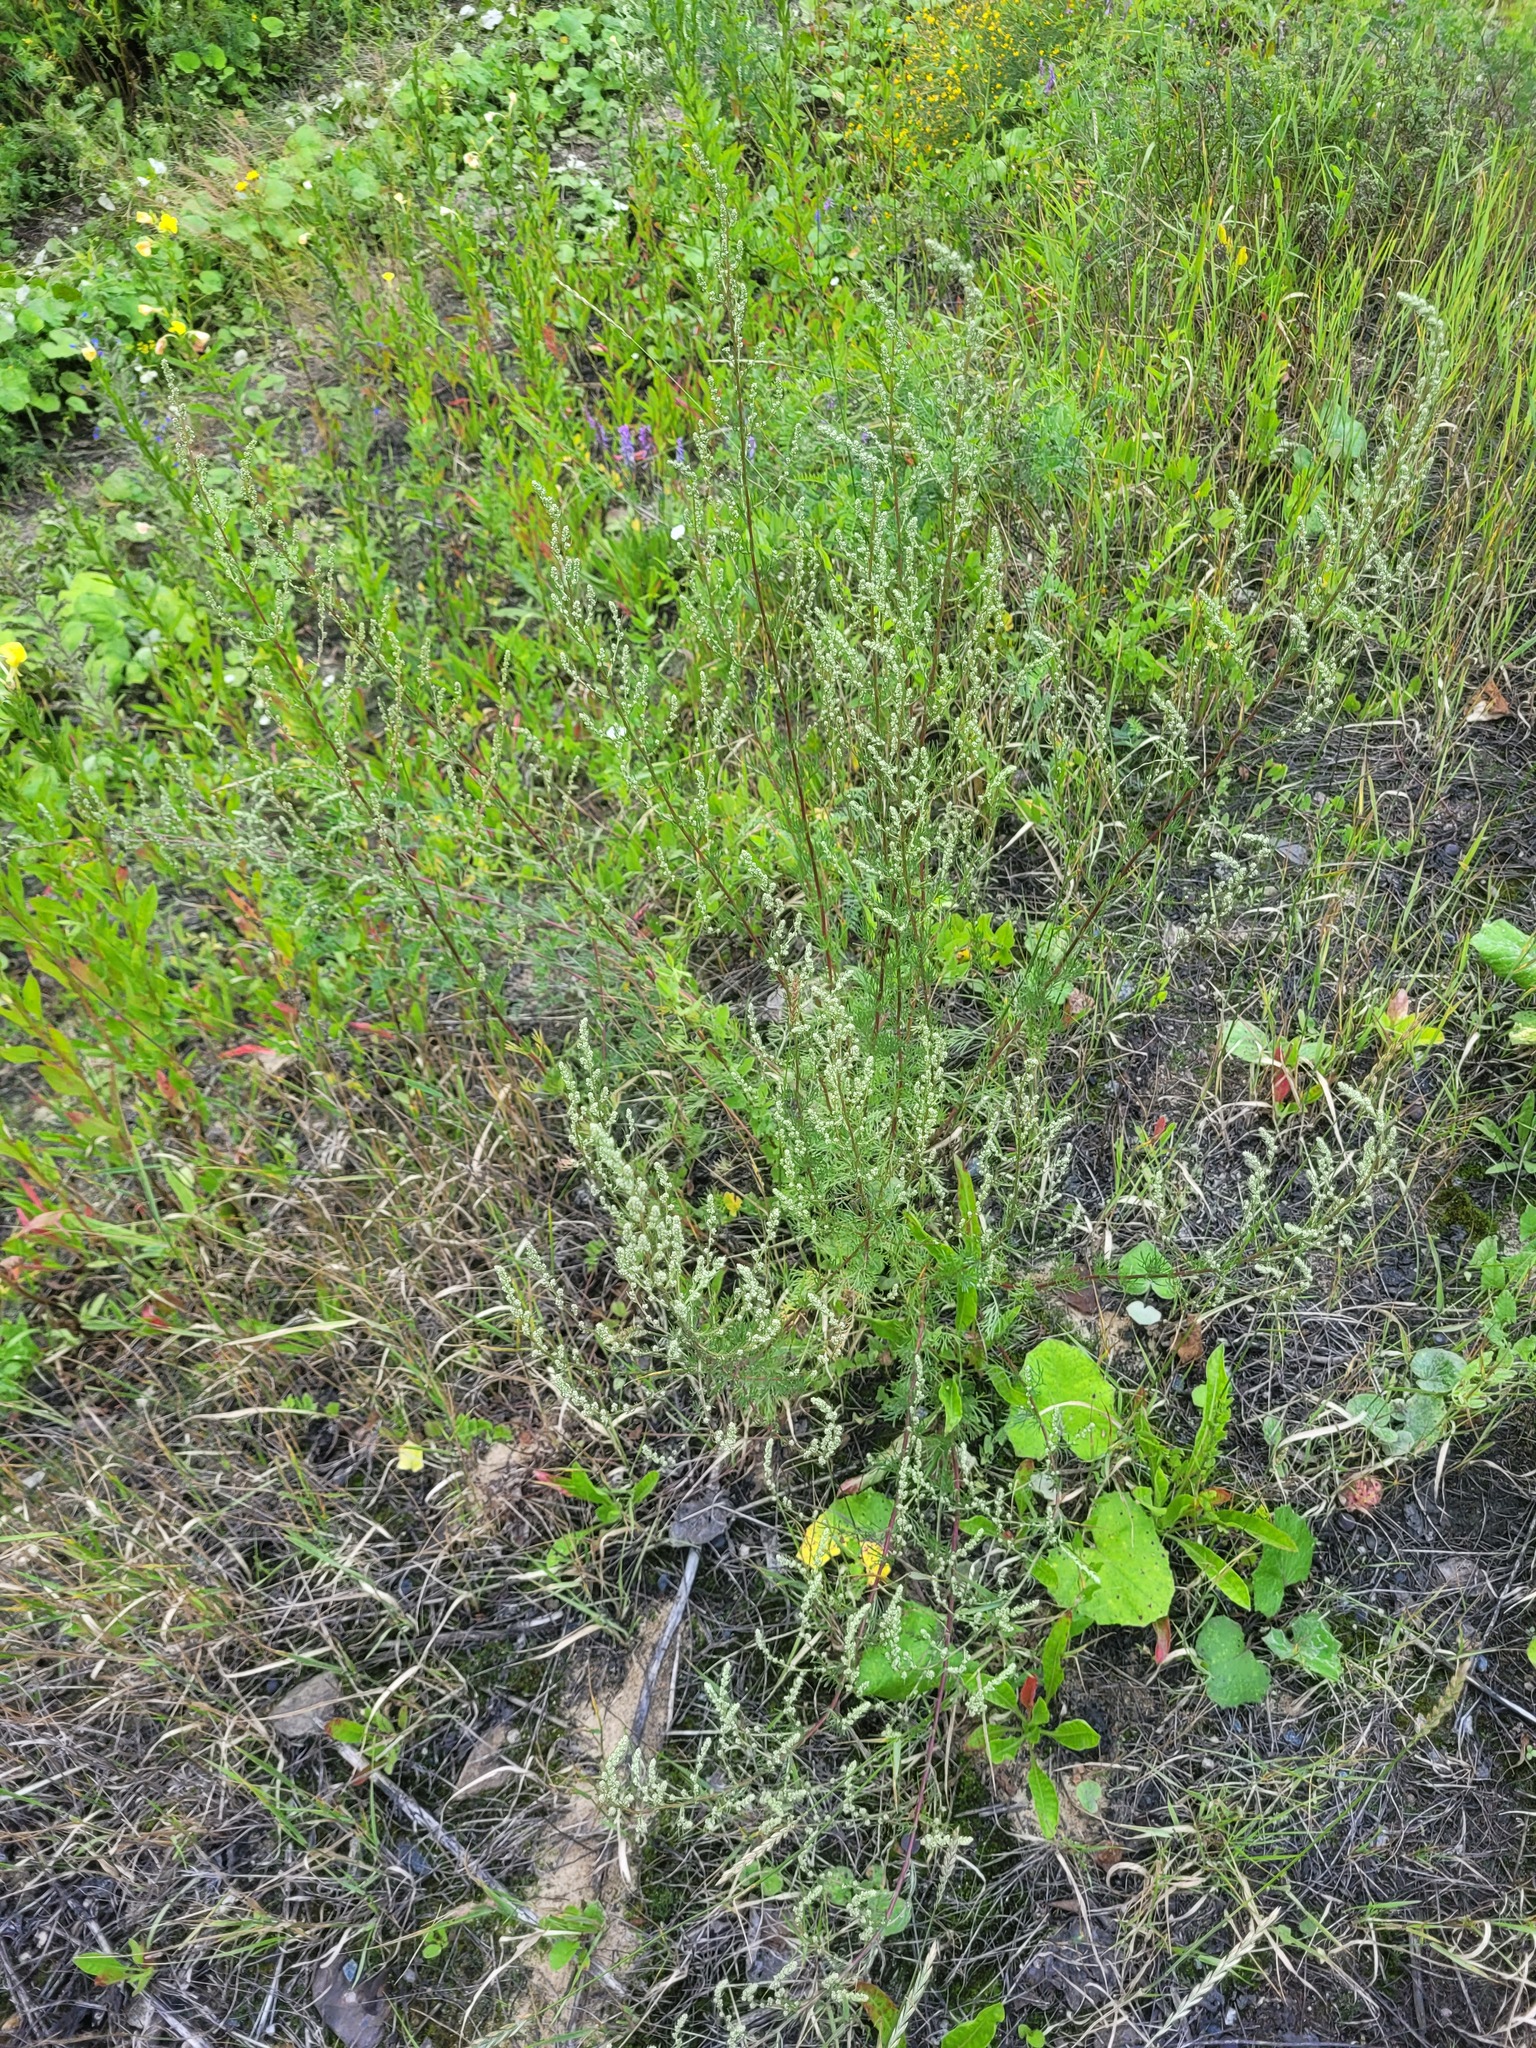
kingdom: Plantae
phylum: Tracheophyta
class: Magnoliopsida
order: Asterales
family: Asteraceae
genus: Artemisia
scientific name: Artemisia campestris
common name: Field wormwood
